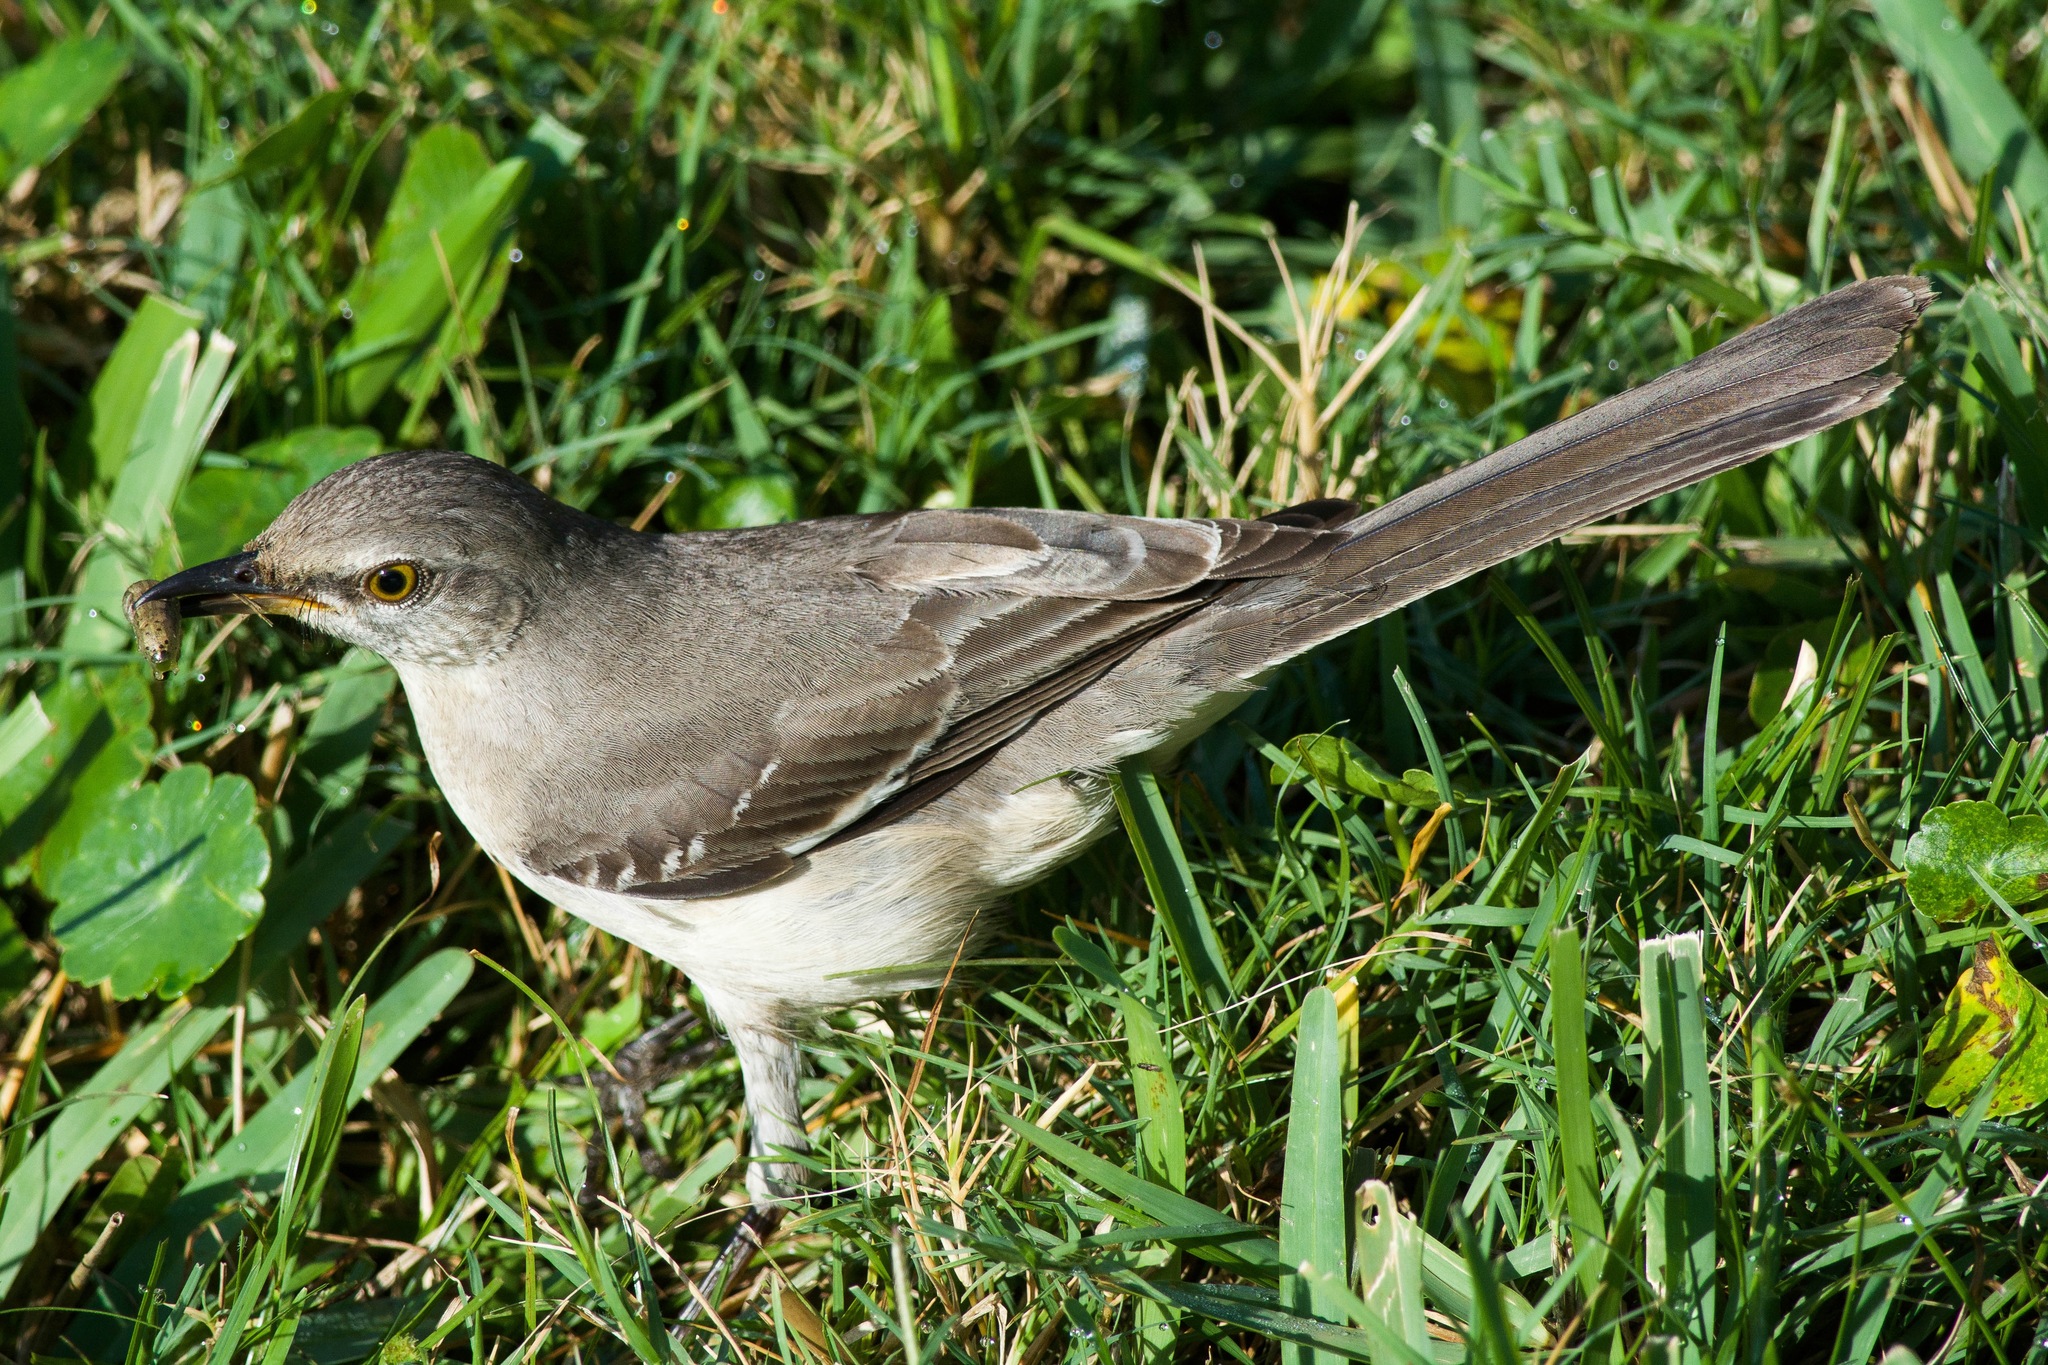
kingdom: Animalia
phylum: Chordata
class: Aves
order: Passeriformes
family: Mimidae
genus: Mimus
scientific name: Mimus polyglottos
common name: Northern mockingbird
